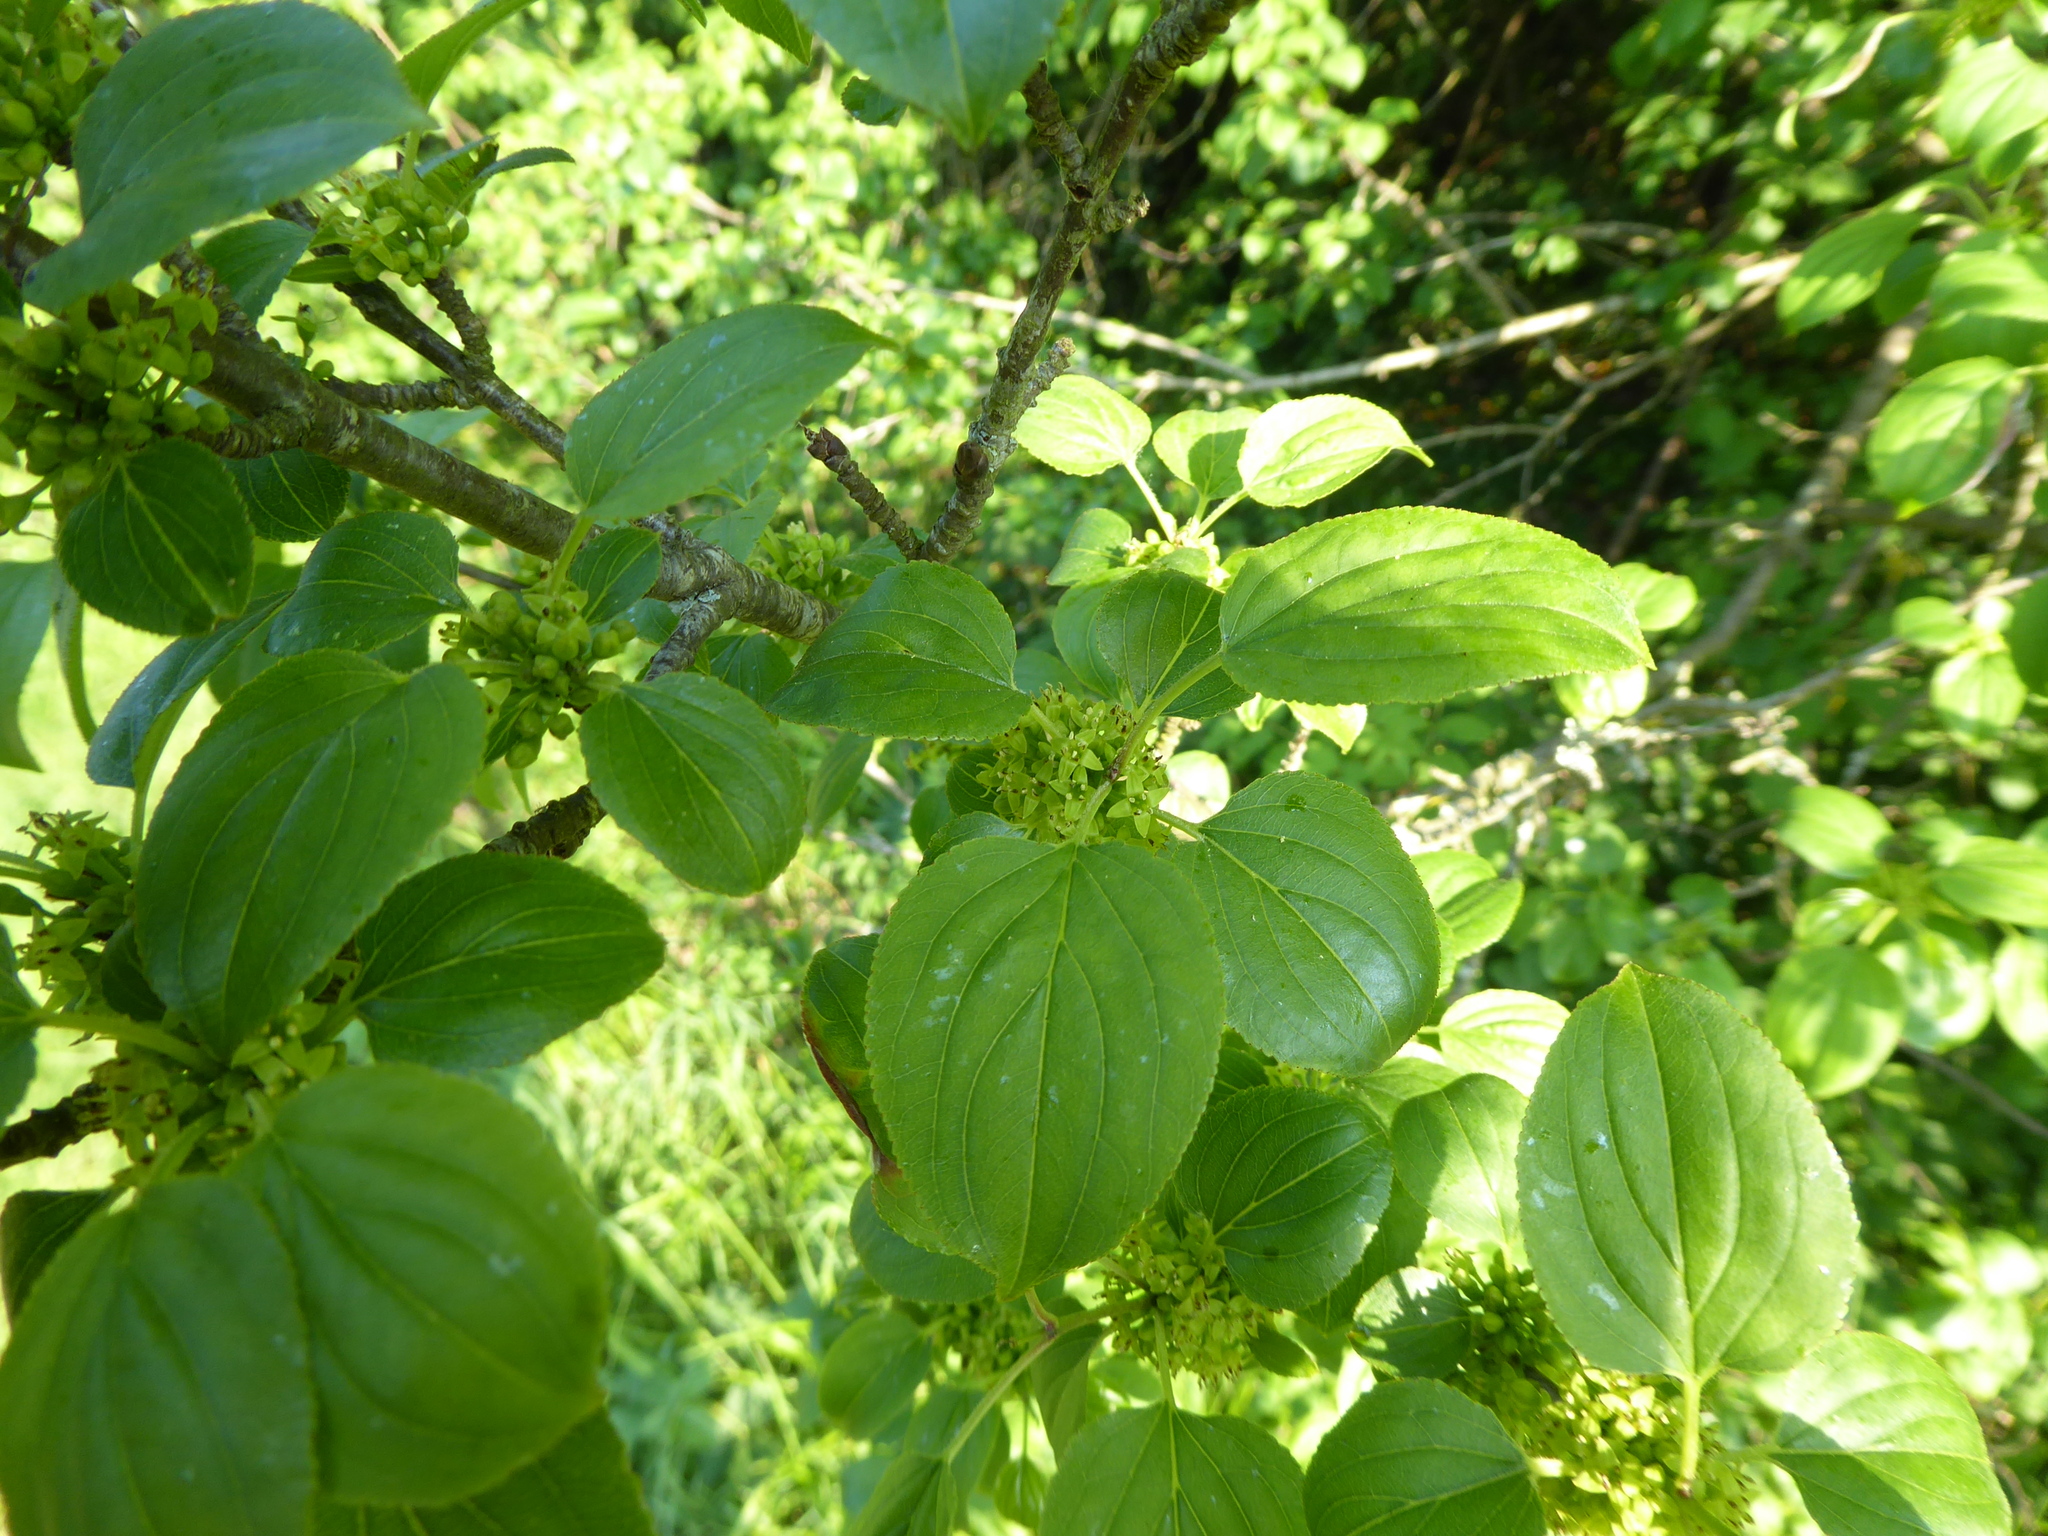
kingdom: Plantae
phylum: Tracheophyta
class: Magnoliopsida
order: Rosales
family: Rhamnaceae
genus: Rhamnus
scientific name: Rhamnus cathartica
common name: Common buckthorn
